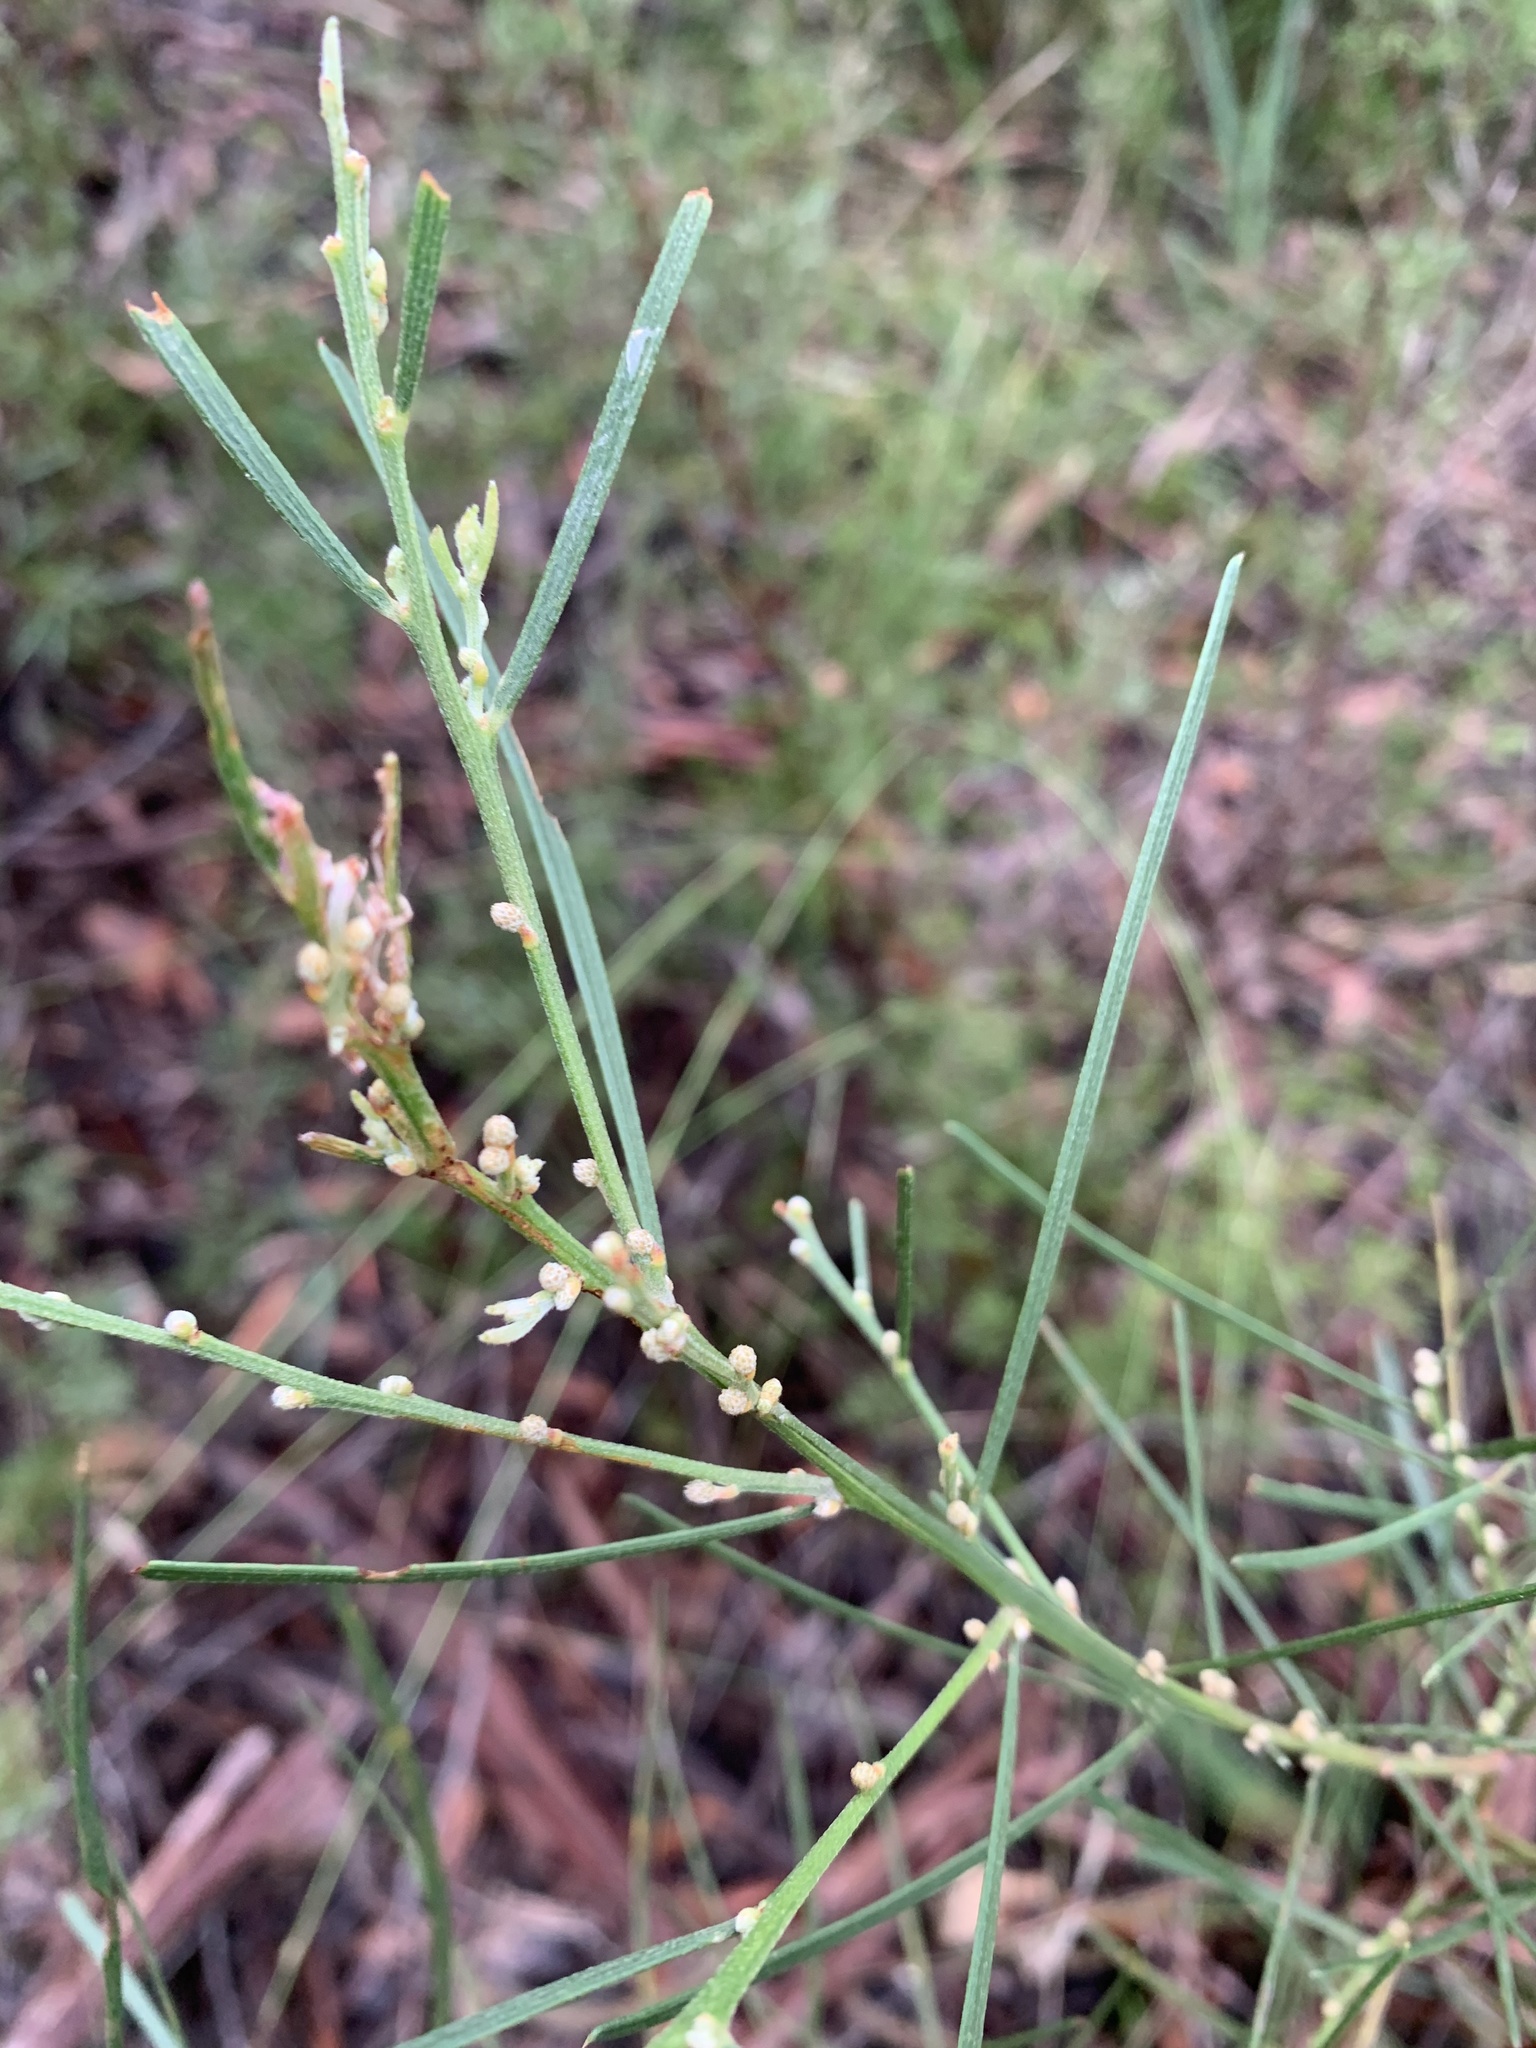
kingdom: Plantae
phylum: Tracheophyta
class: Magnoliopsida
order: Fabales
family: Fabaceae
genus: Acacia
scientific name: Acacia elongata
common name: Swamp wattle
